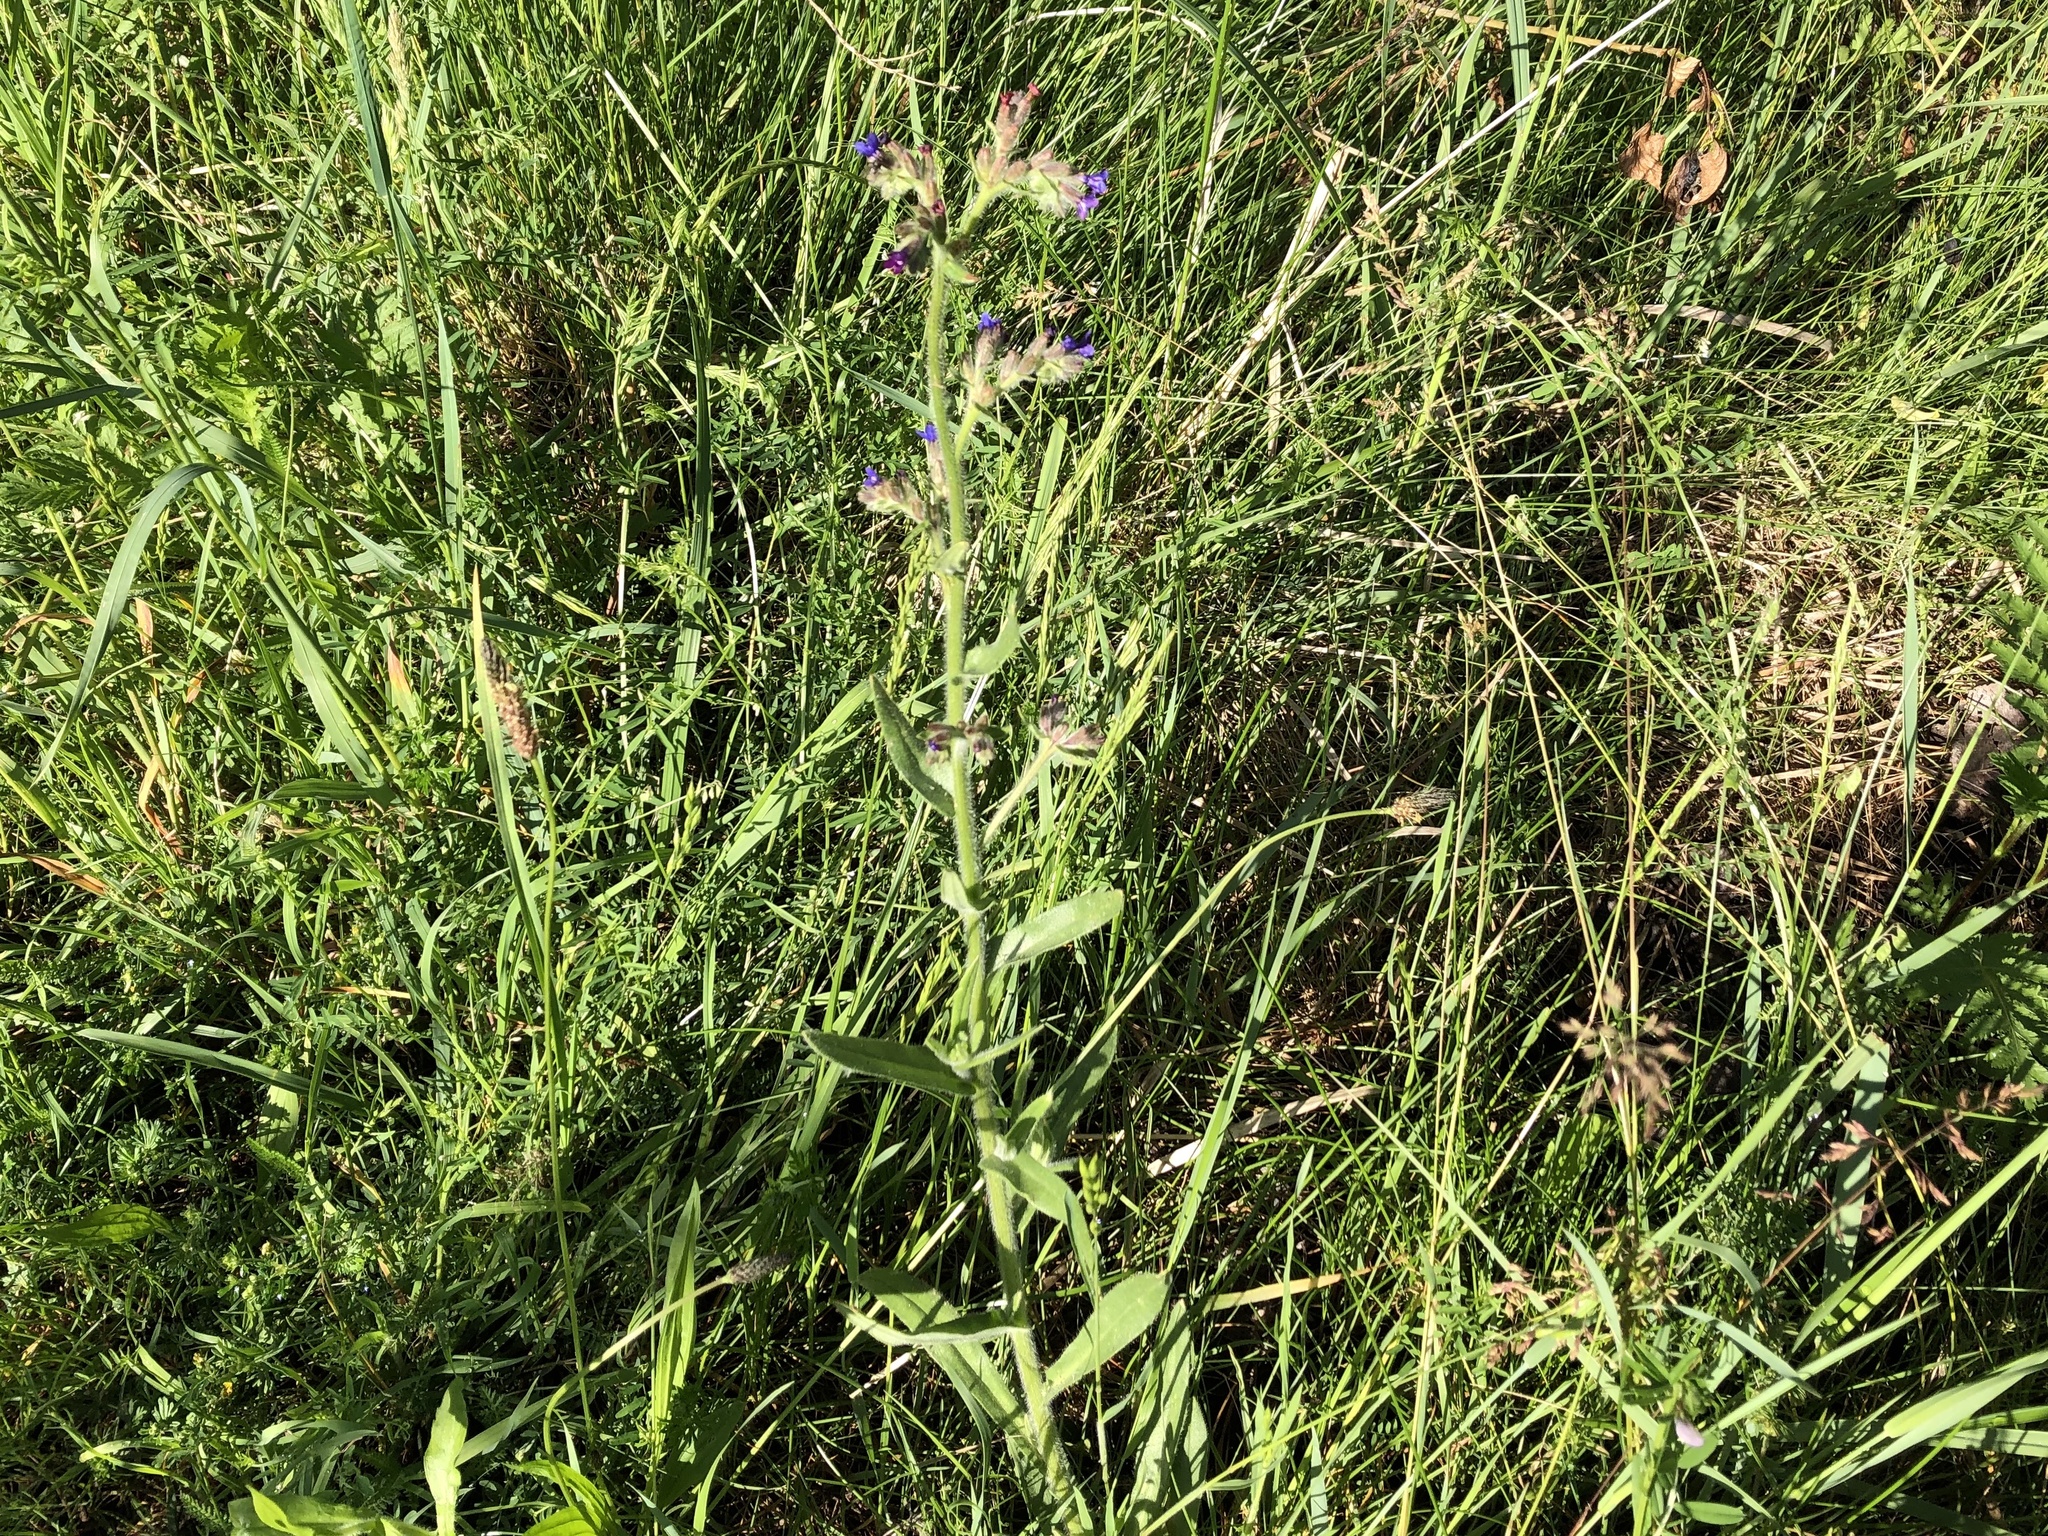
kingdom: Plantae
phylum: Tracheophyta
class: Magnoliopsida
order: Boraginales
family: Boraginaceae
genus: Anchusa
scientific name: Anchusa officinalis
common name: Alkanet
